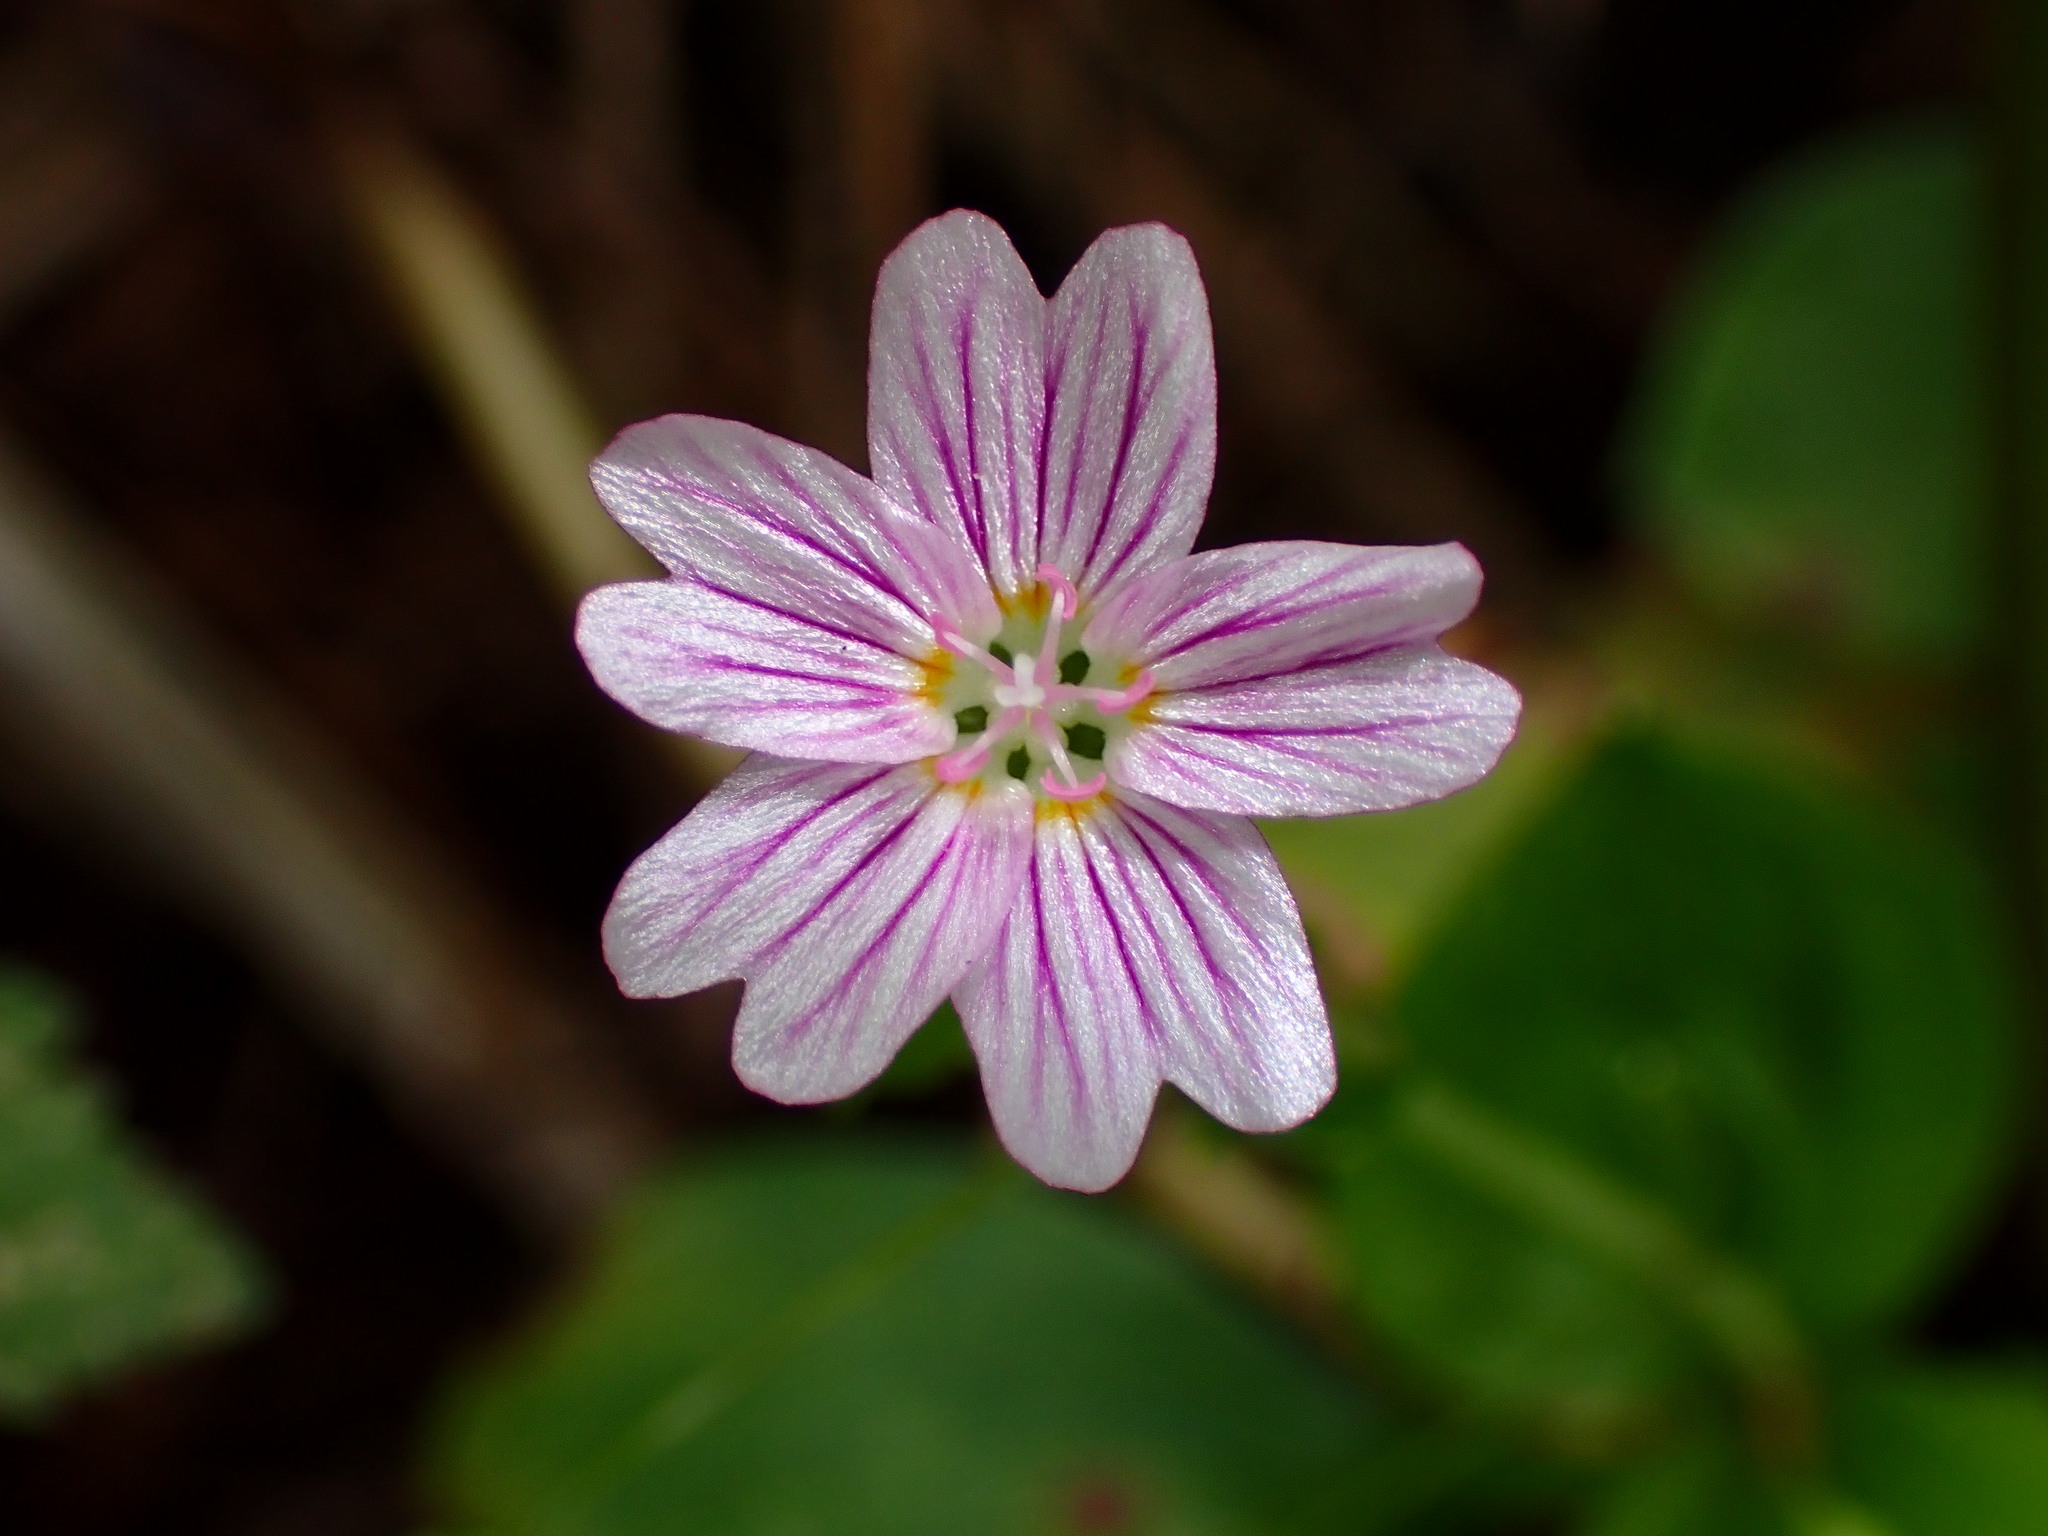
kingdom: Plantae
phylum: Tracheophyta
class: Magnoliopsida
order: Caryophyllales
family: Montiaceae
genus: Claytonia
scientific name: Claytonia sibirica
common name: Pink purslane
